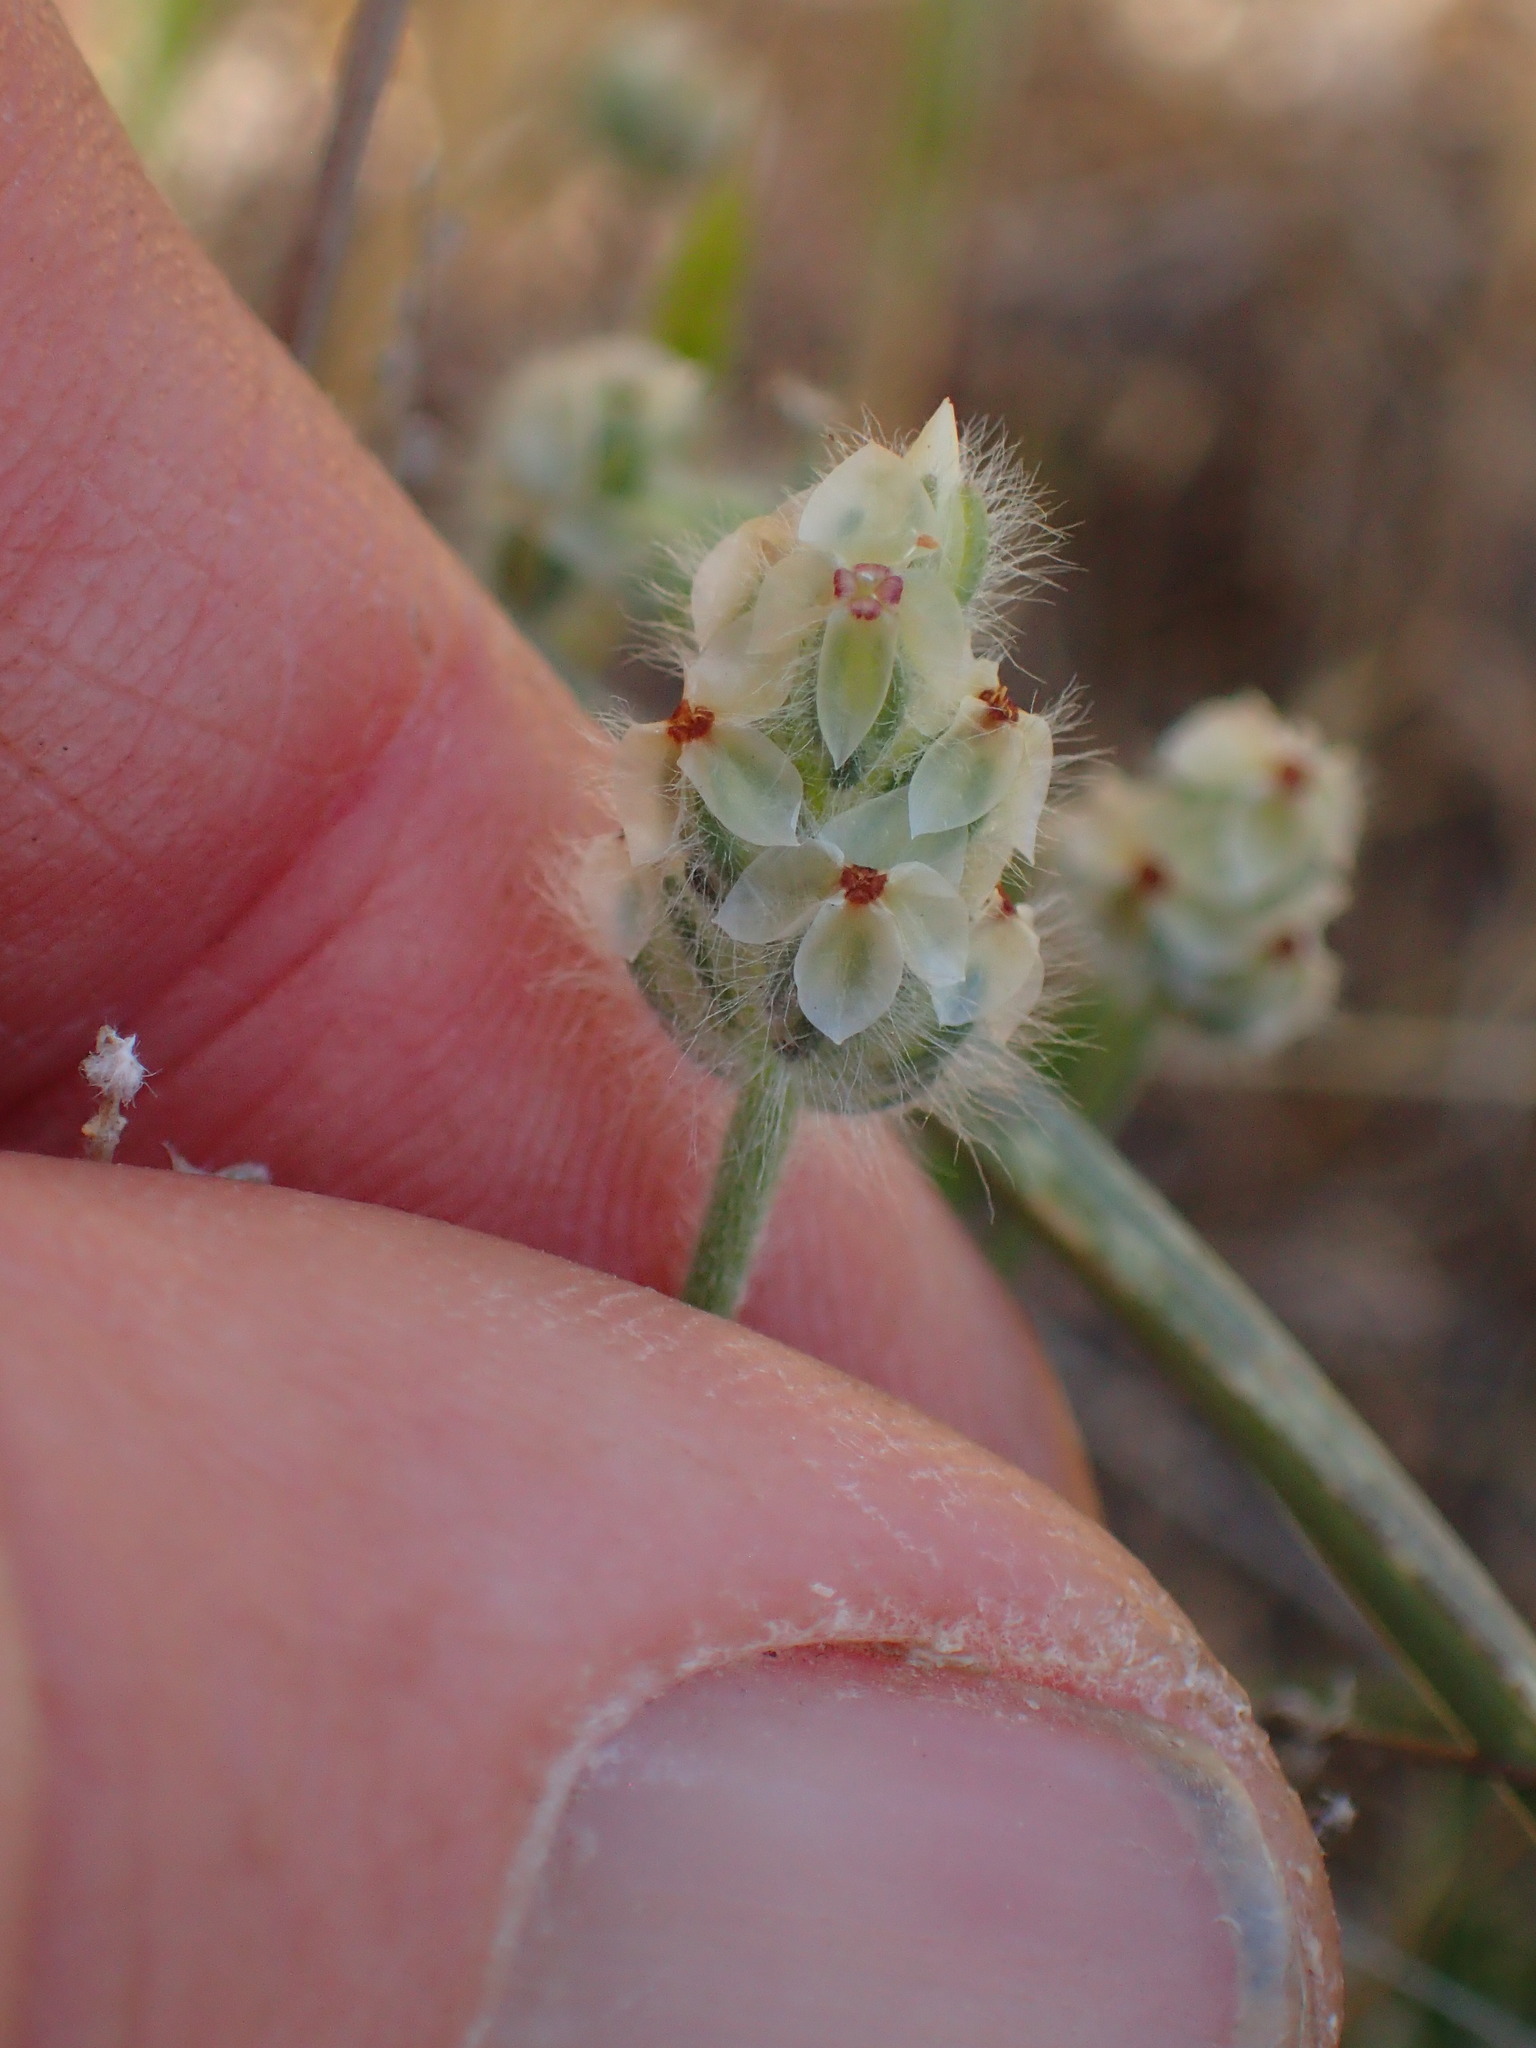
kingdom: Plantae
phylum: Tracheophyta
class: Magnoliopsida
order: Lamiales
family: Plantaginaceae
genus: Plantago
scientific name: Plantago erecta
